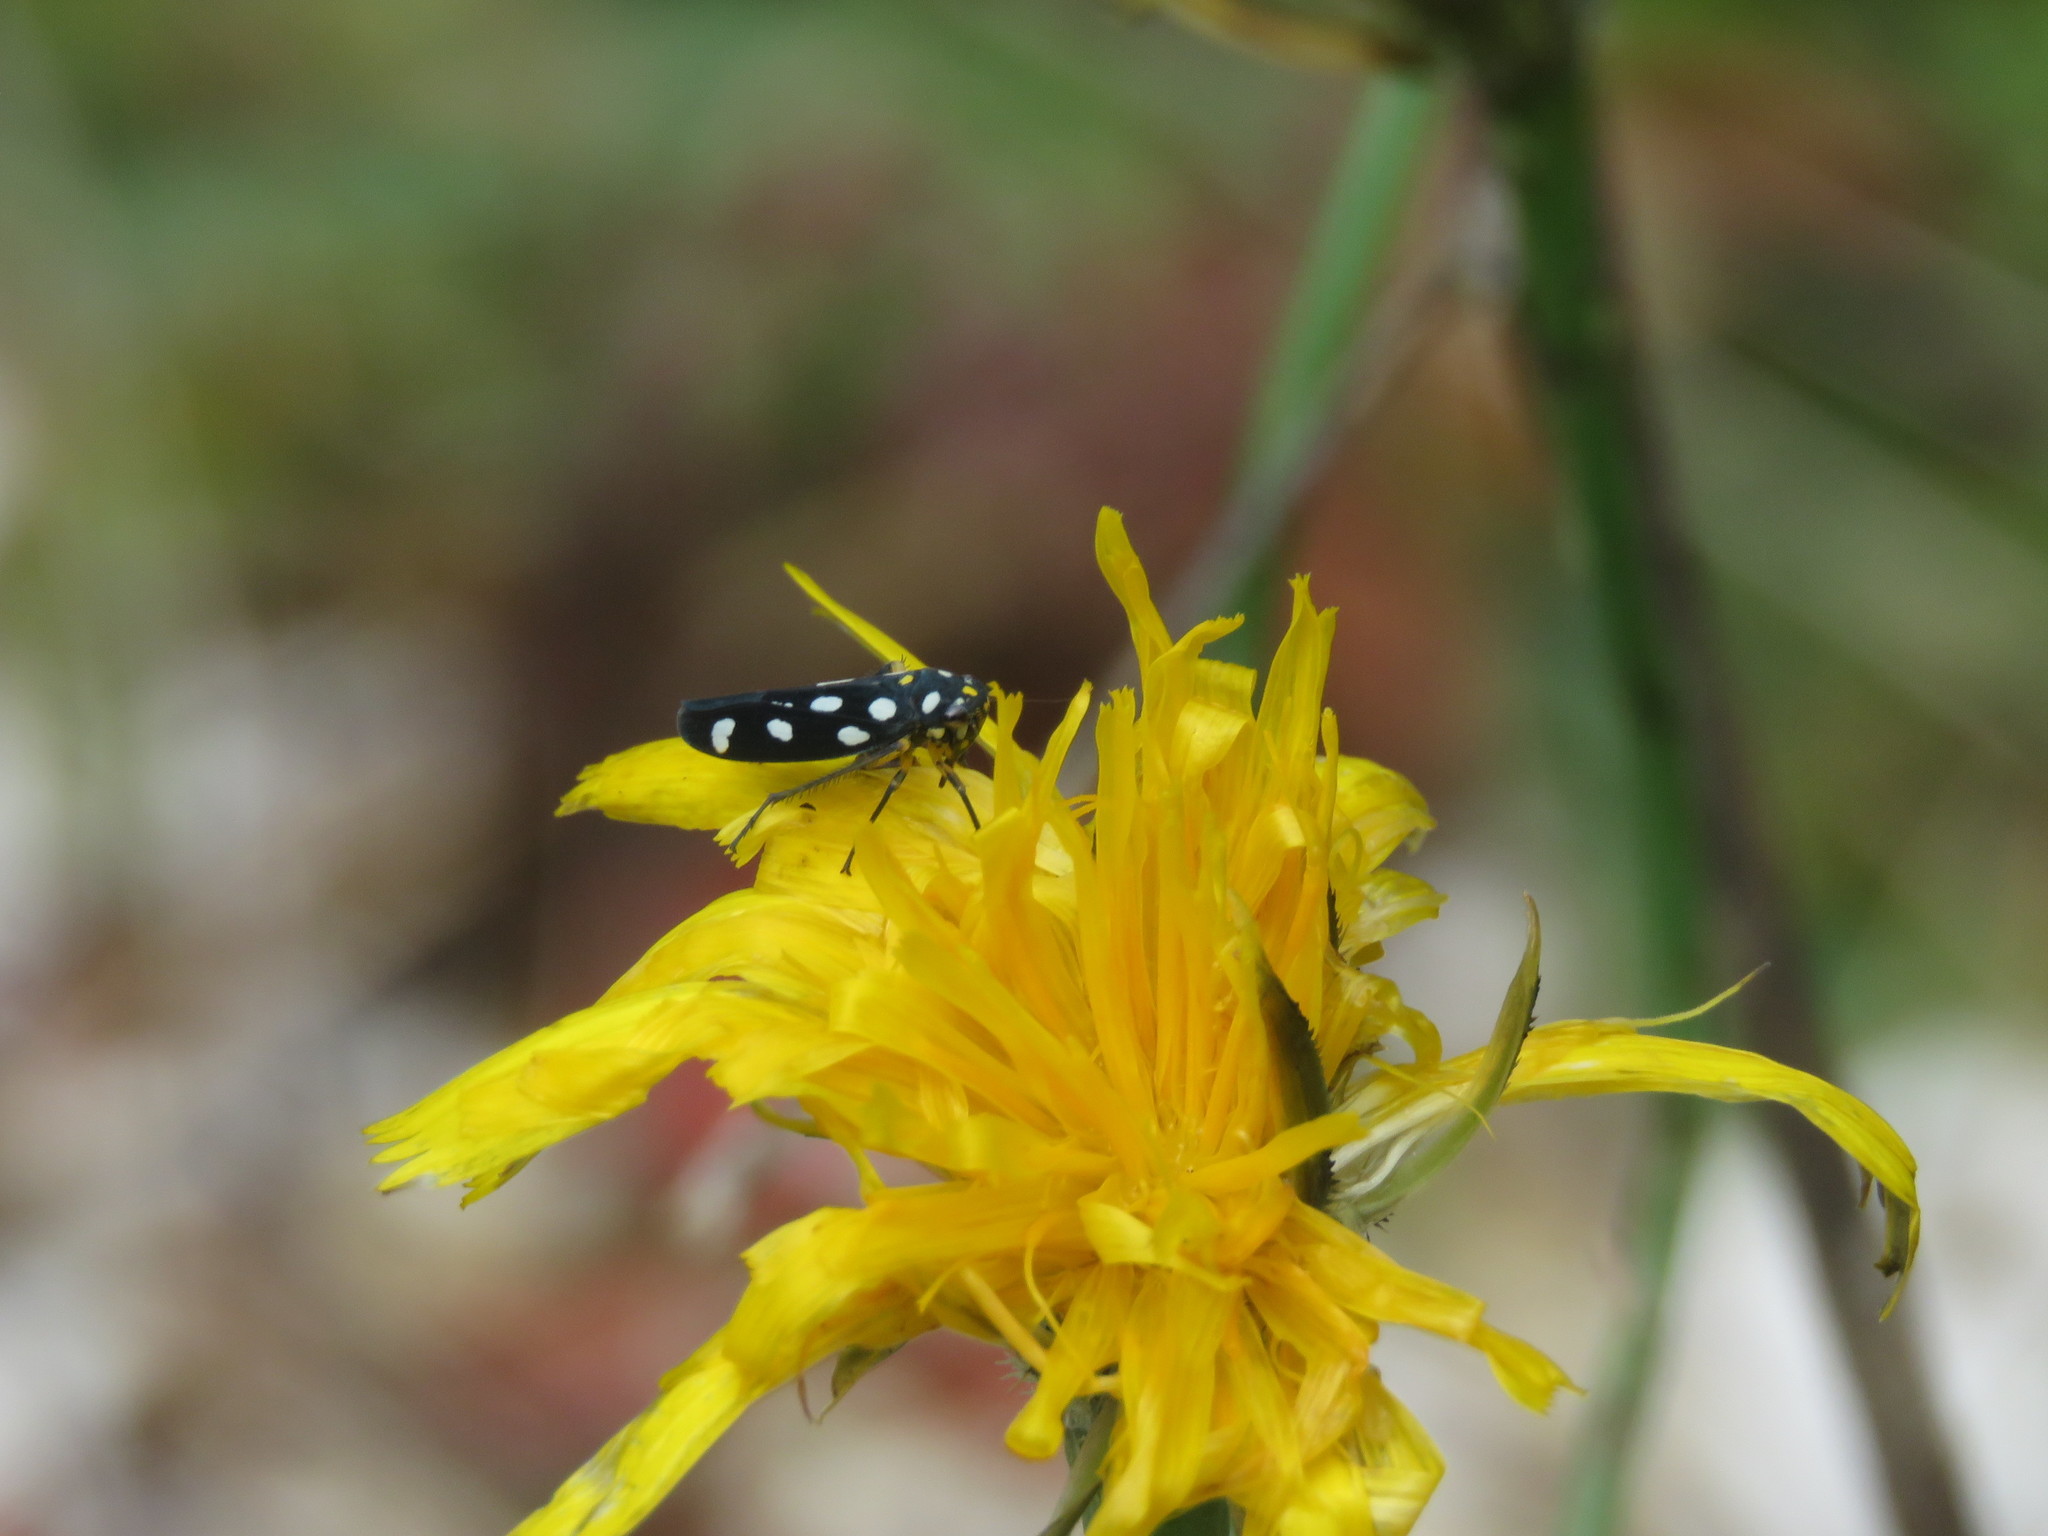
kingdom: Animalia
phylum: Arthropoda
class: Insecta
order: Hemiptera
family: Cicadellidae
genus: Stehlikiana
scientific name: Stehlikiana crassa
